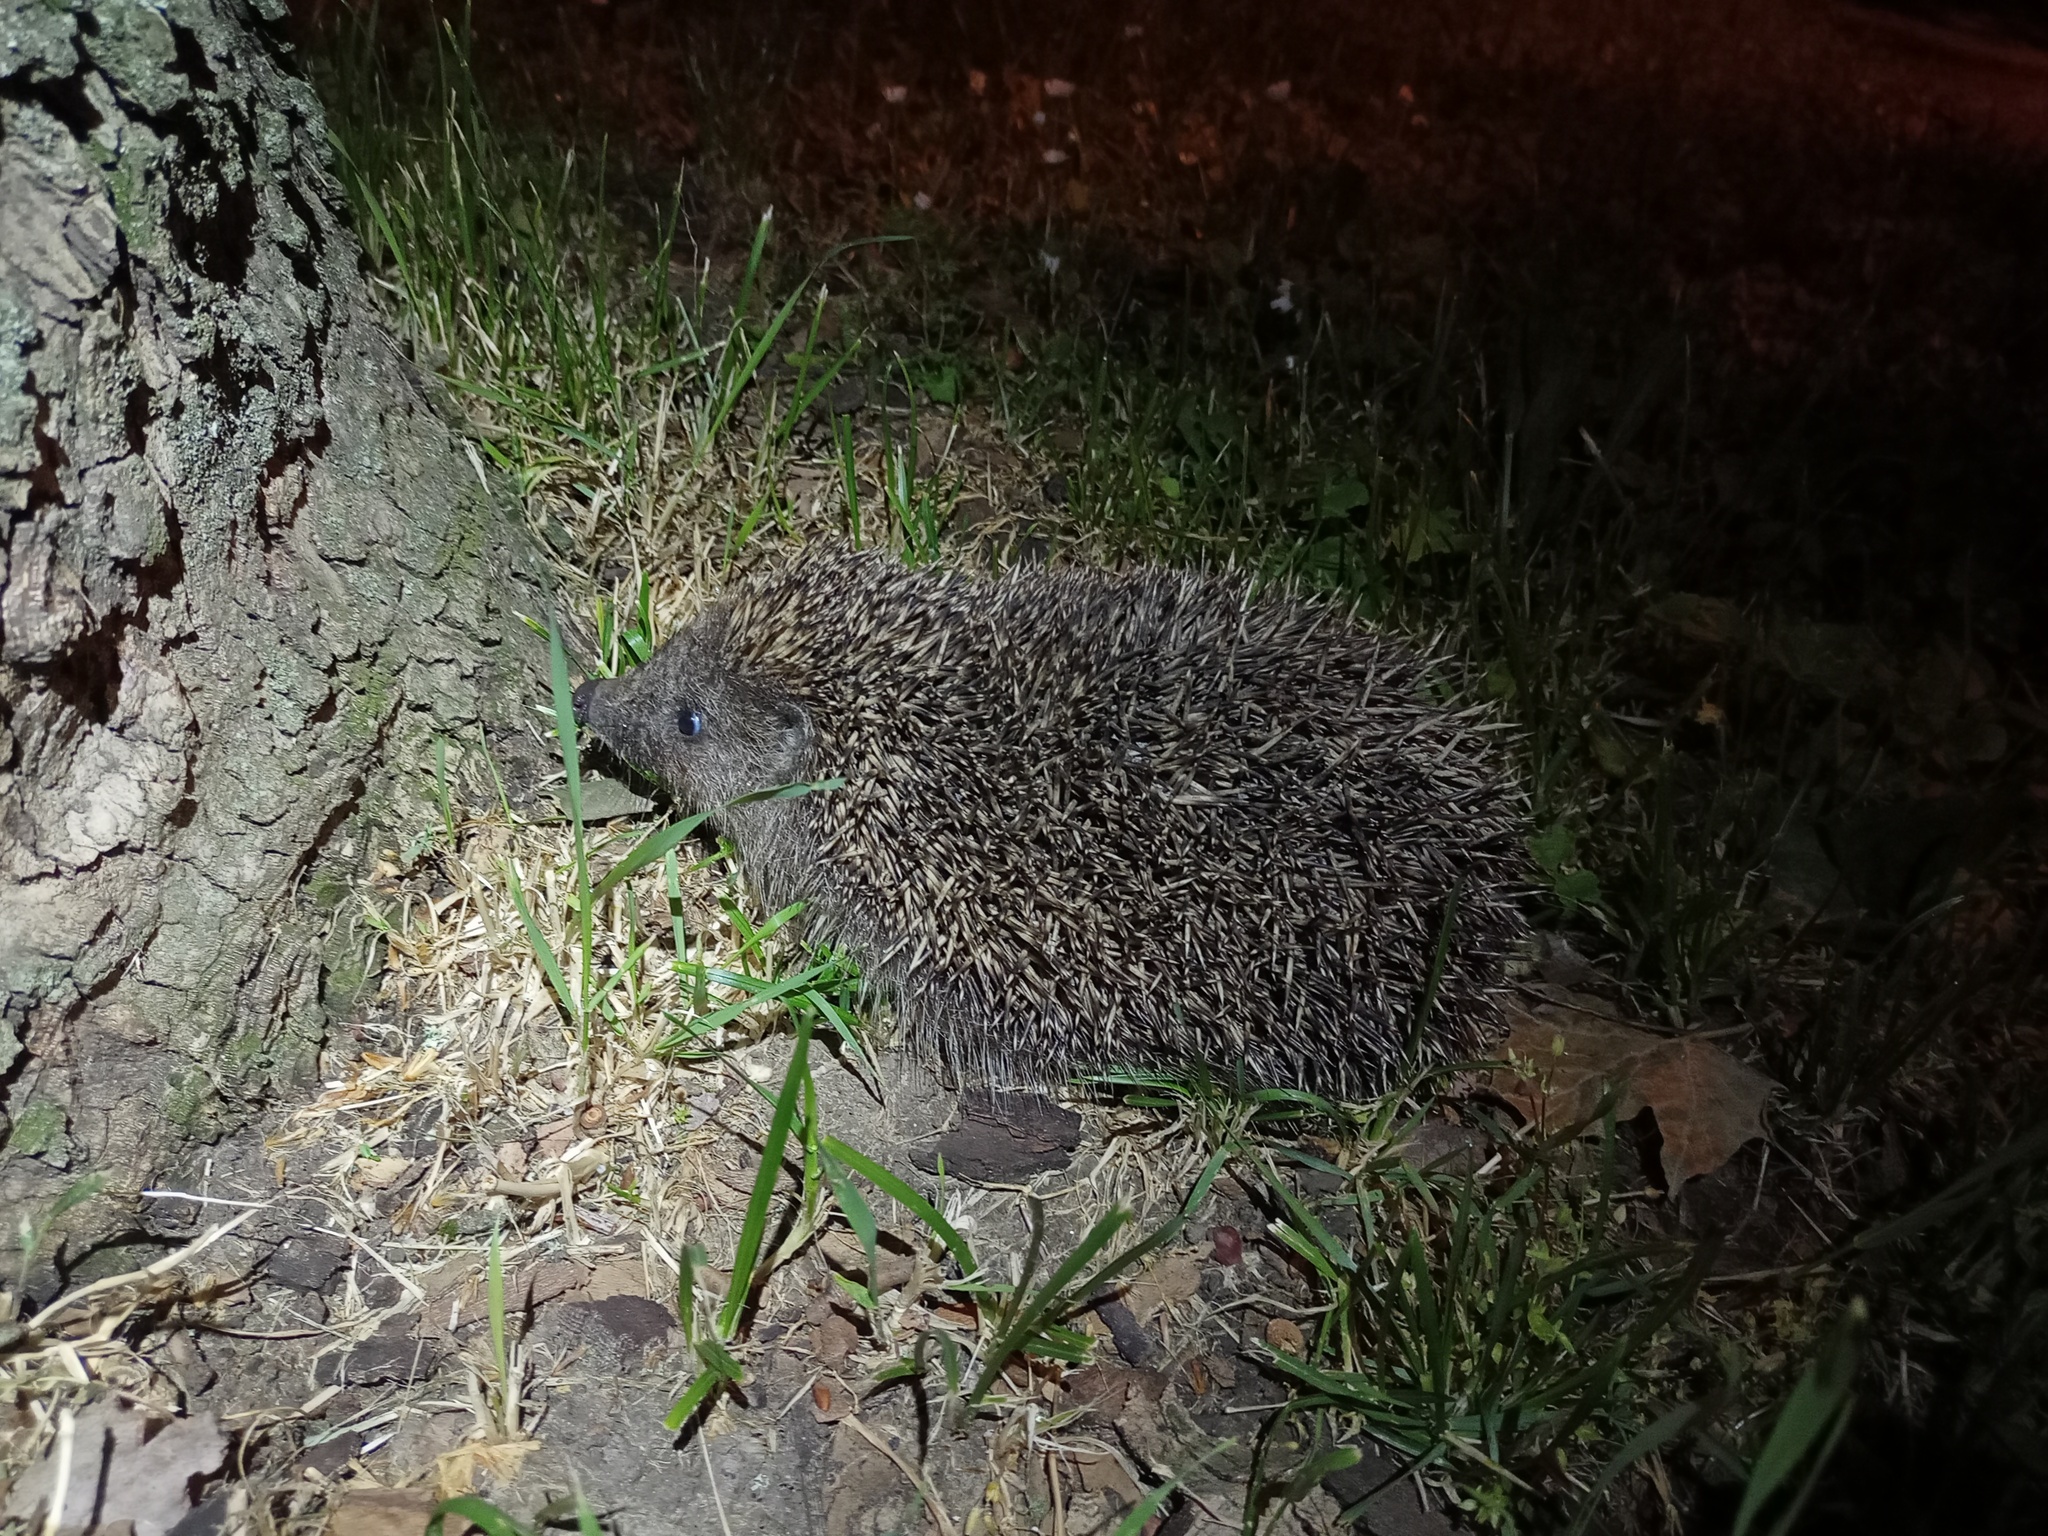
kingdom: Animalia
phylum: Chordata
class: Mammalia
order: Erinaceomorpha
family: Erinaceidae
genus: Erinaceus
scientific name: Erinaceus roumanicus
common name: Northern white-breasted hedgehog
